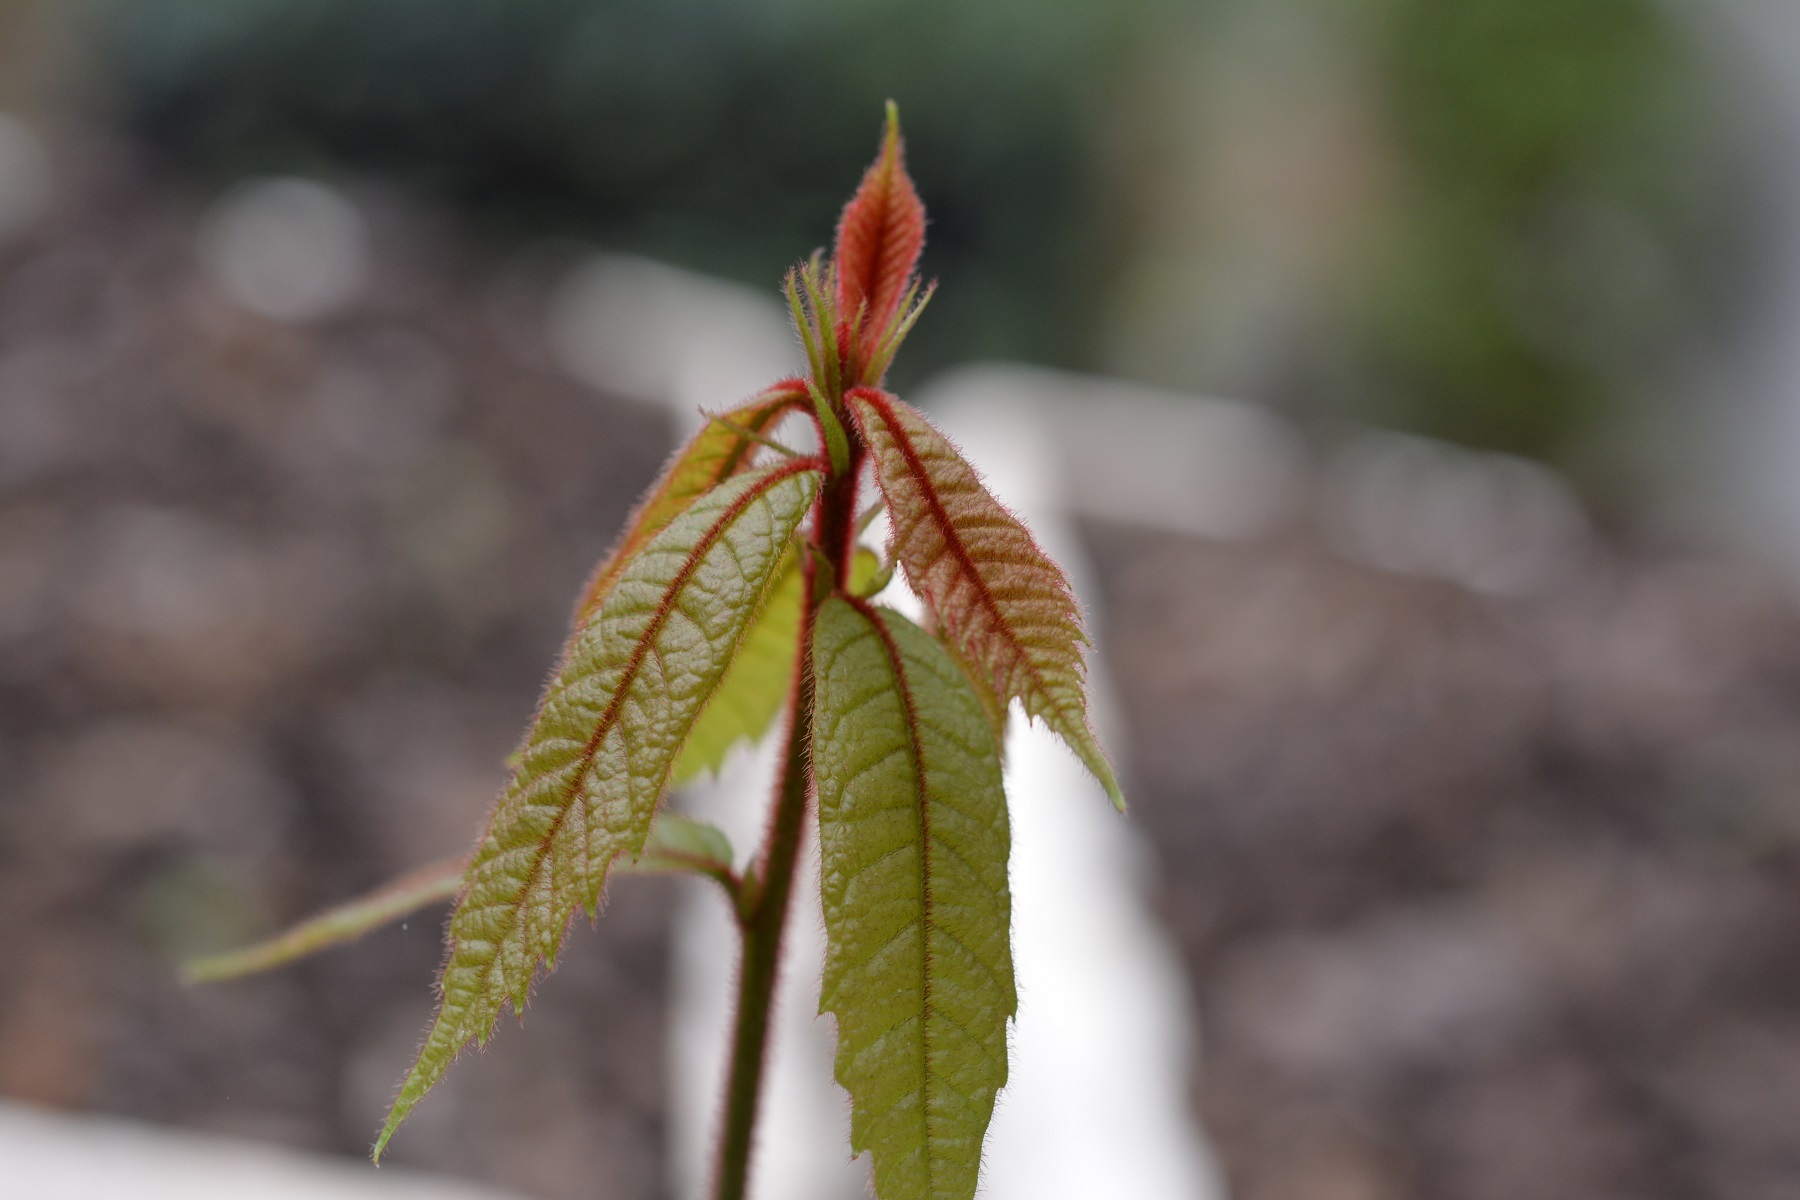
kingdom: Plantae
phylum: Tracheophyta
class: Magnoliopsida
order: Fagales
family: Fagaceae
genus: Quercus
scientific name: Quercus insignis
